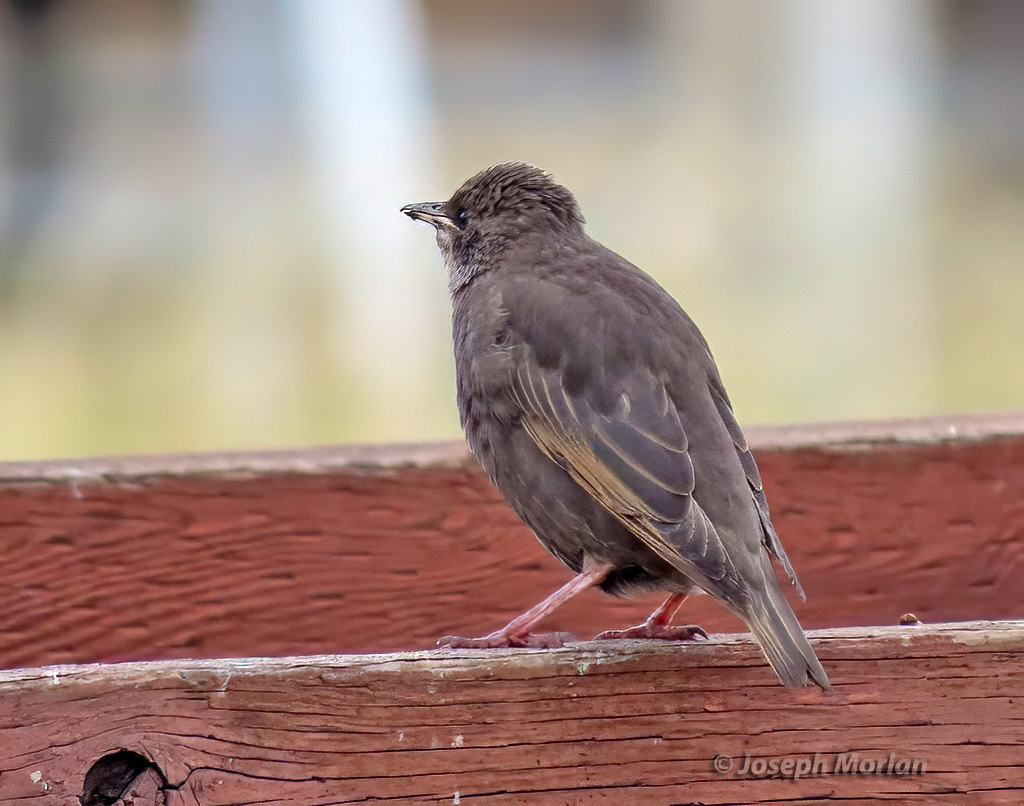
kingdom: Animalia
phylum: Chordata
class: Aves
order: Passeriformes
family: Sturnidae
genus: Sturnus
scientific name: Sturnus vulgaris
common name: Common starling
